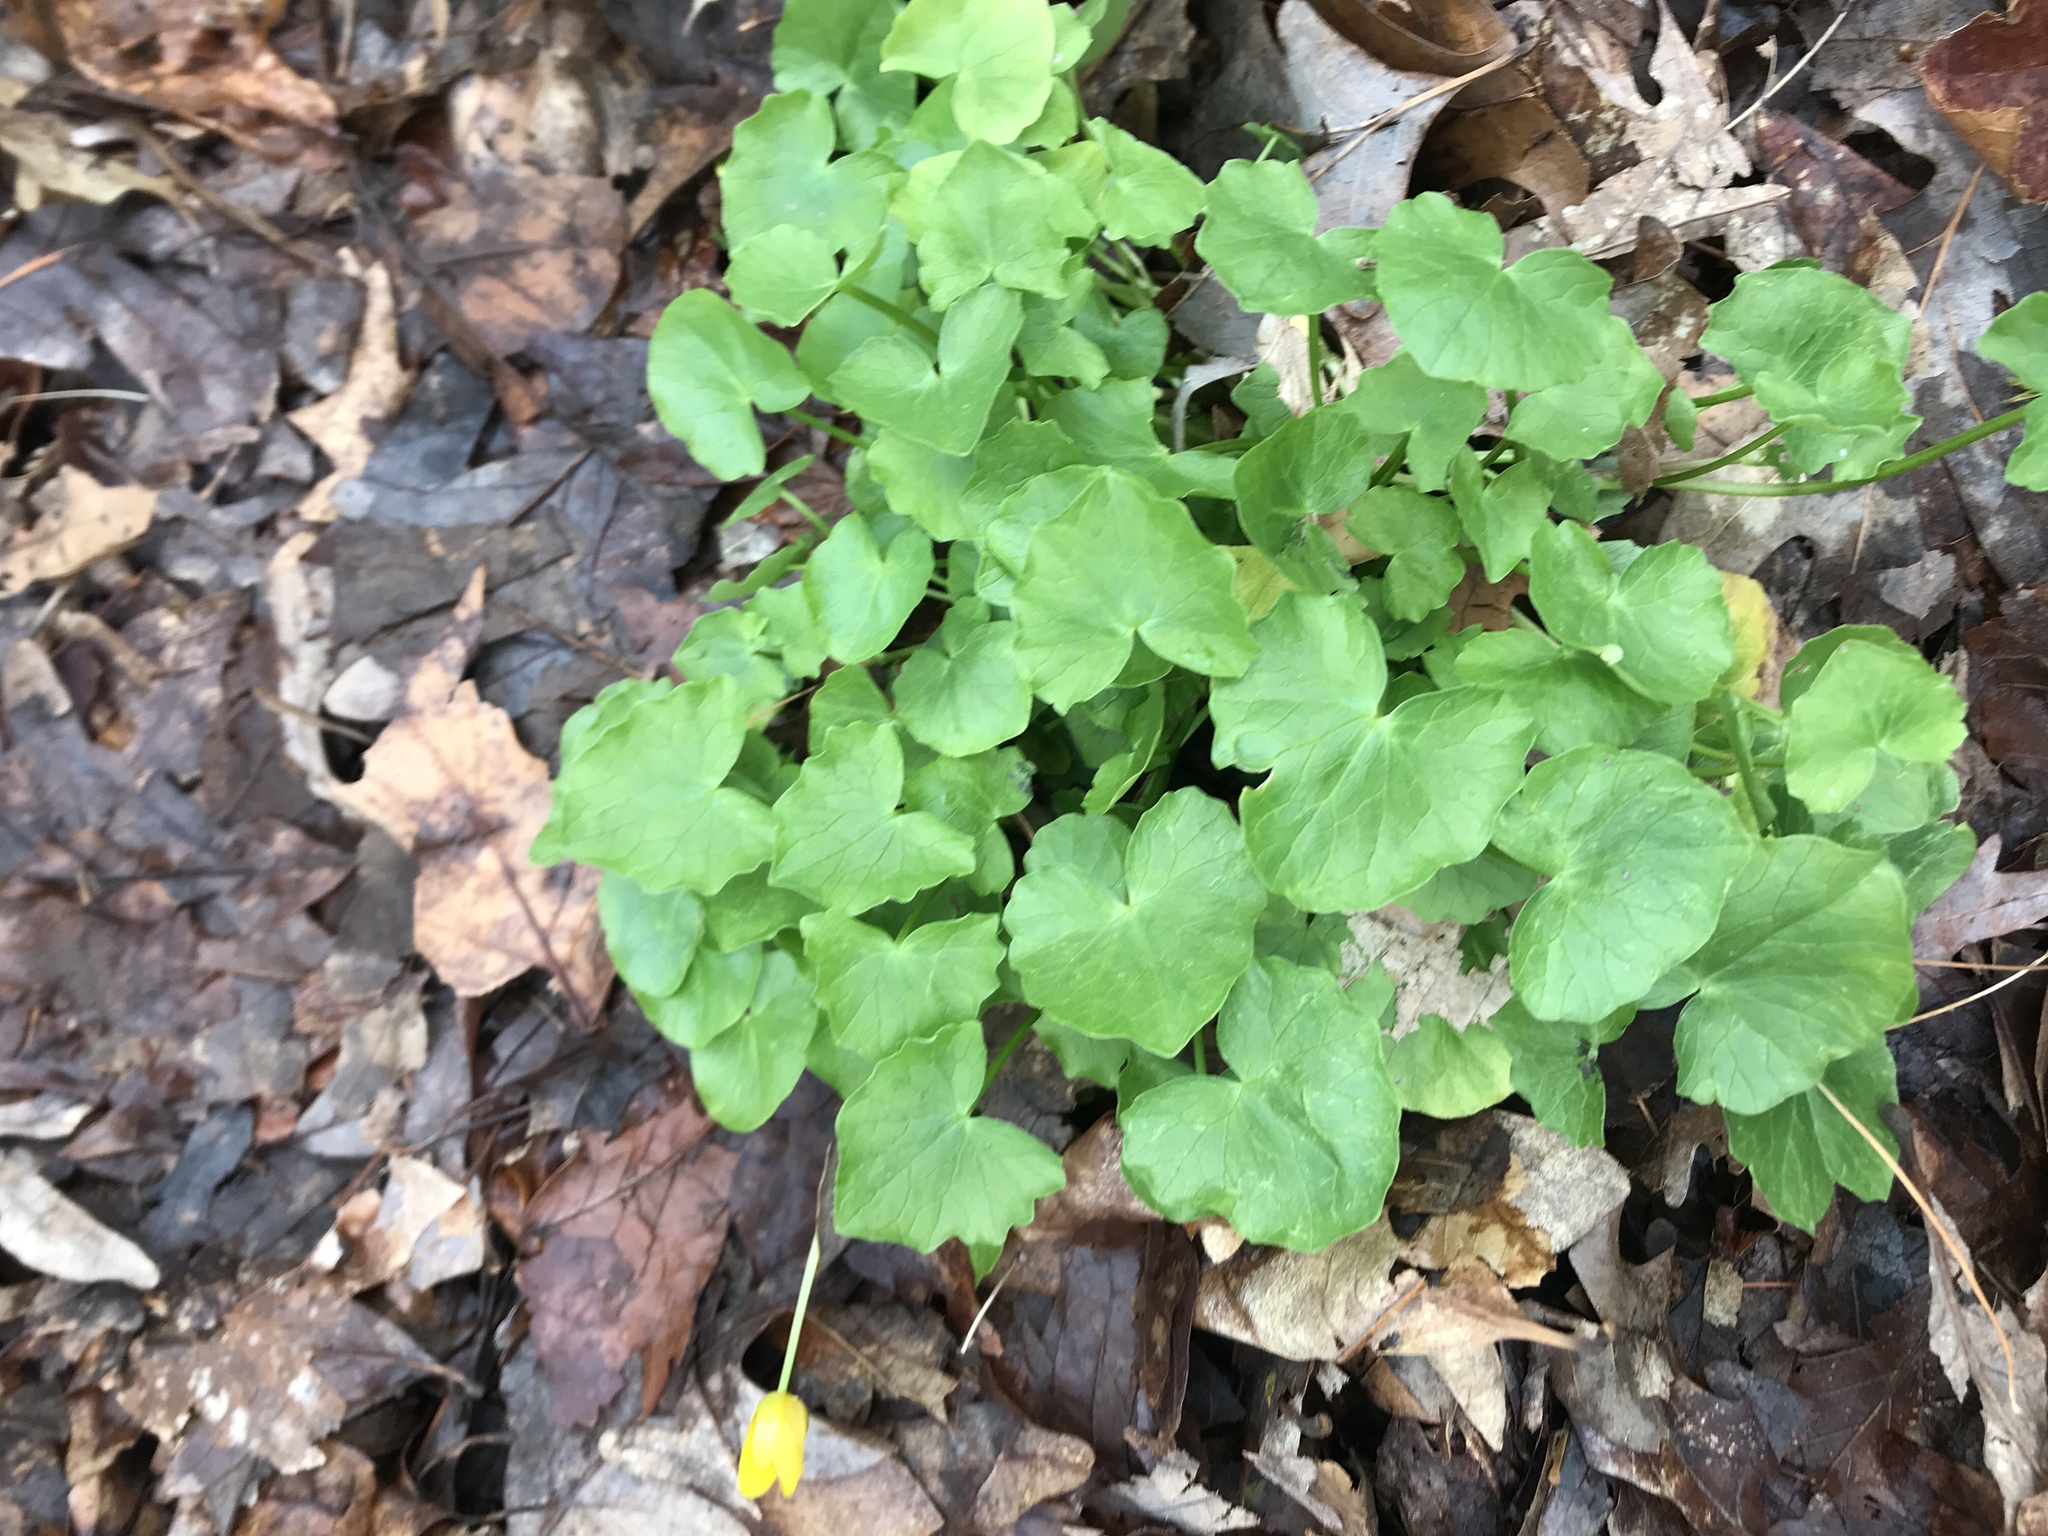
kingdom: Plantae
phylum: Tracheophyta
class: Magnoliopsida
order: Ranunculales
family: Ranunculaceae
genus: Ficaria
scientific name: Ficaria verna
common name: Lesser celandine
